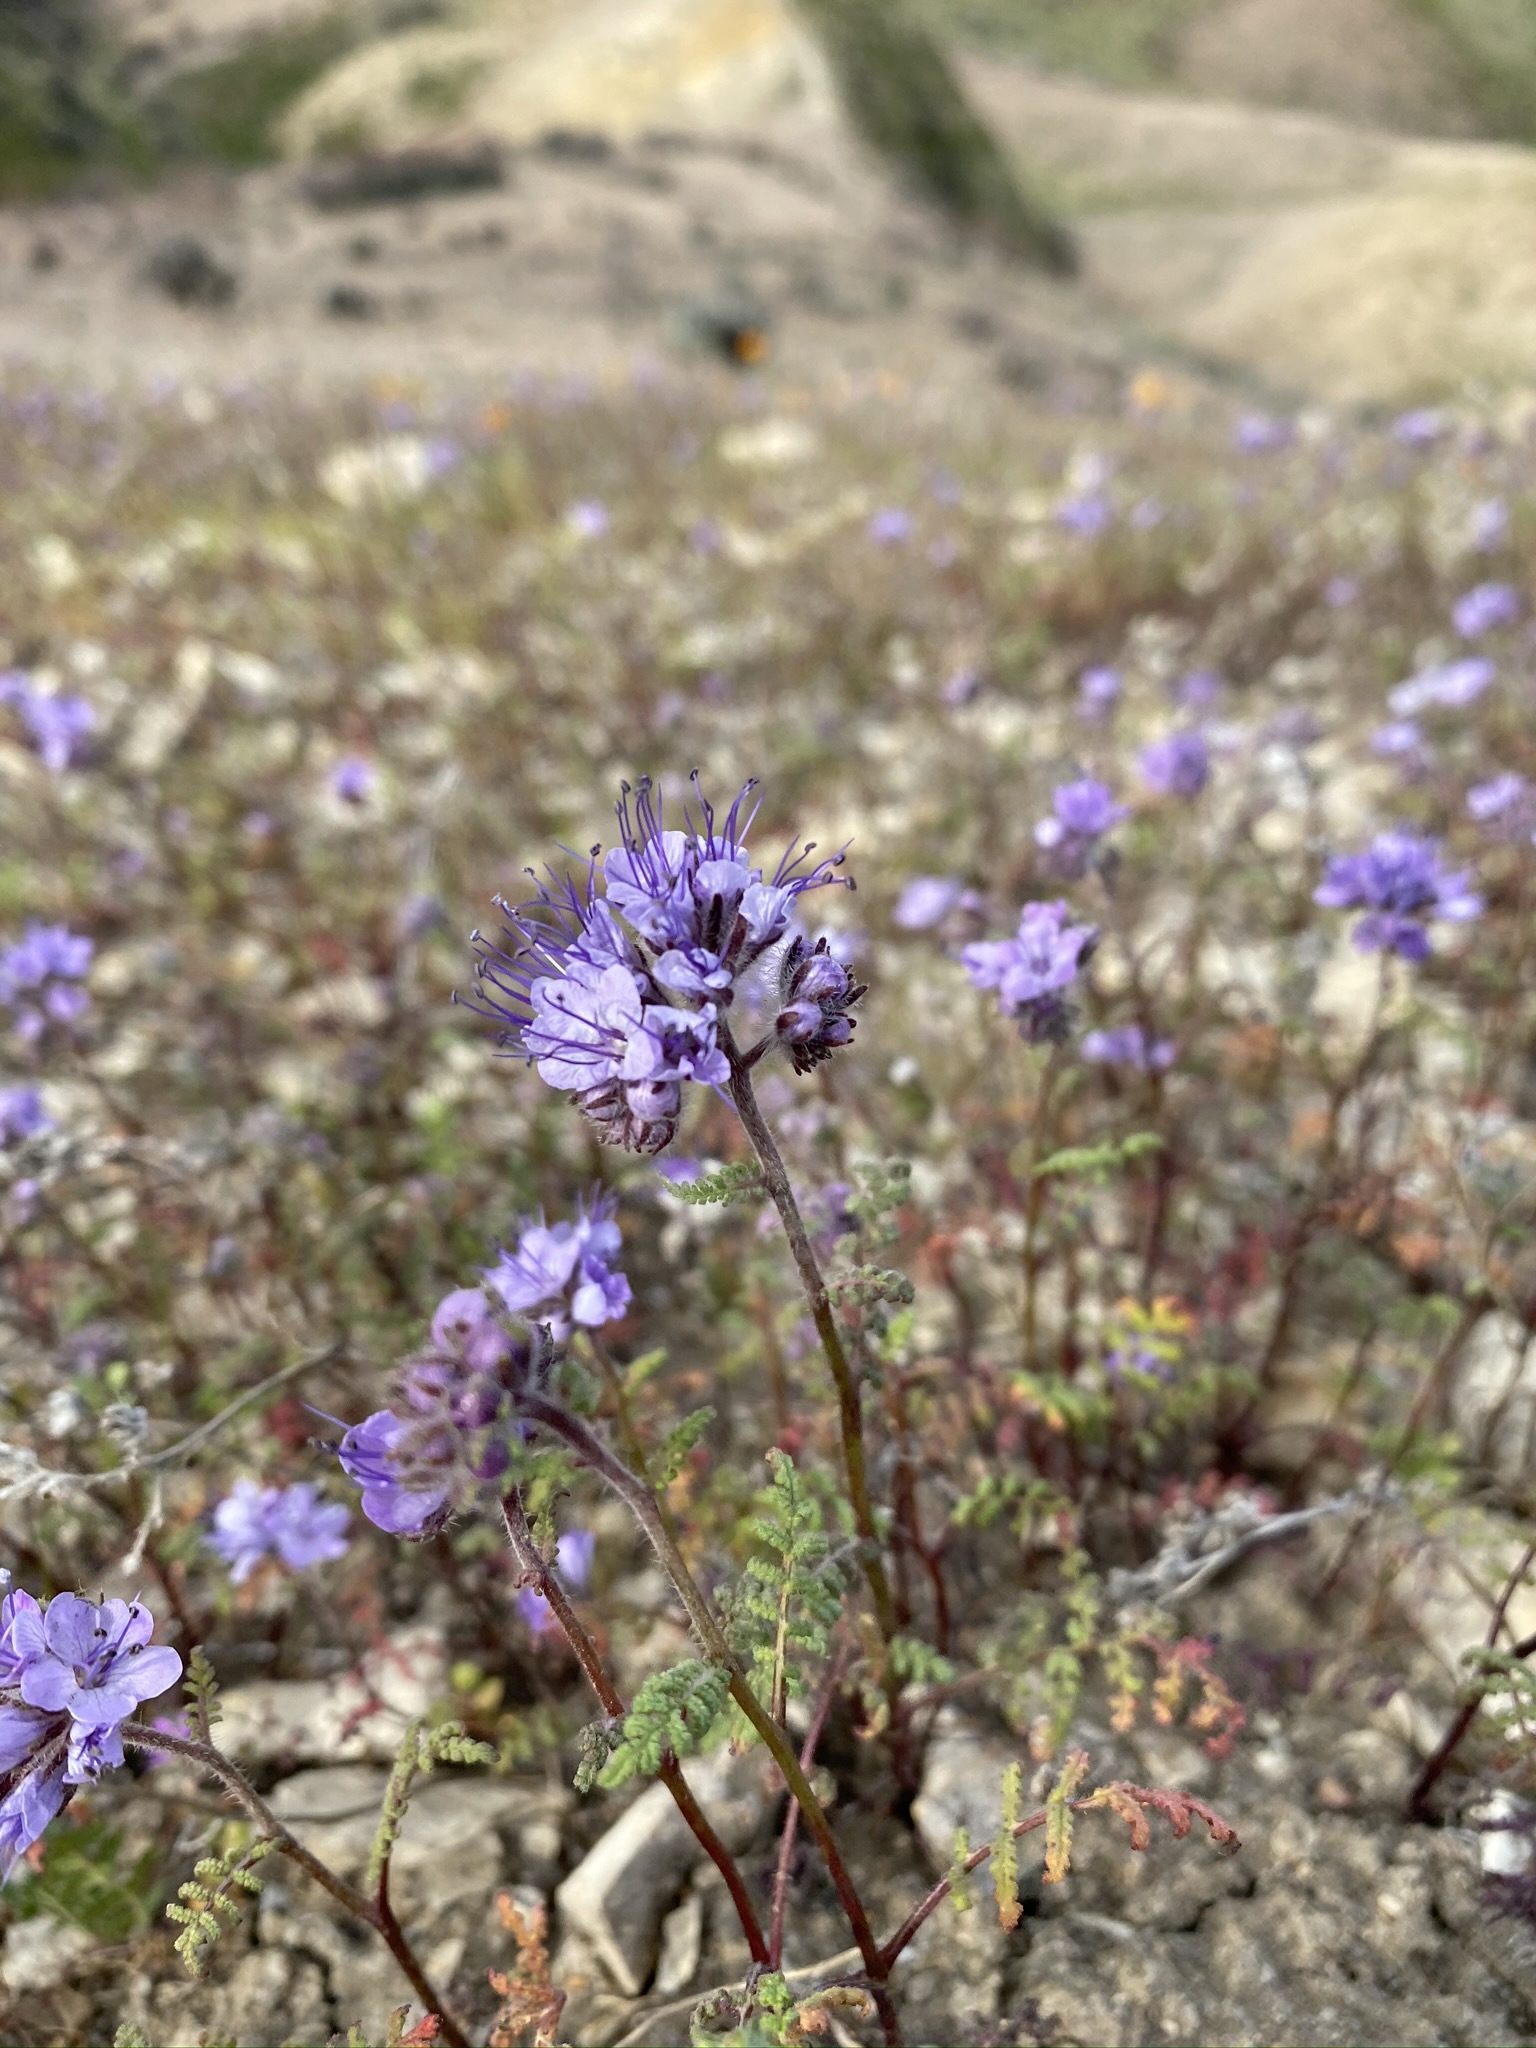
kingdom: Plantae
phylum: Tracheophyta
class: Magnoliopsida
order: Boraginales
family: Hydrophyllaceae
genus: Phacelia
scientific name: Phacelia tanacetifolia
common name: Phacelia
